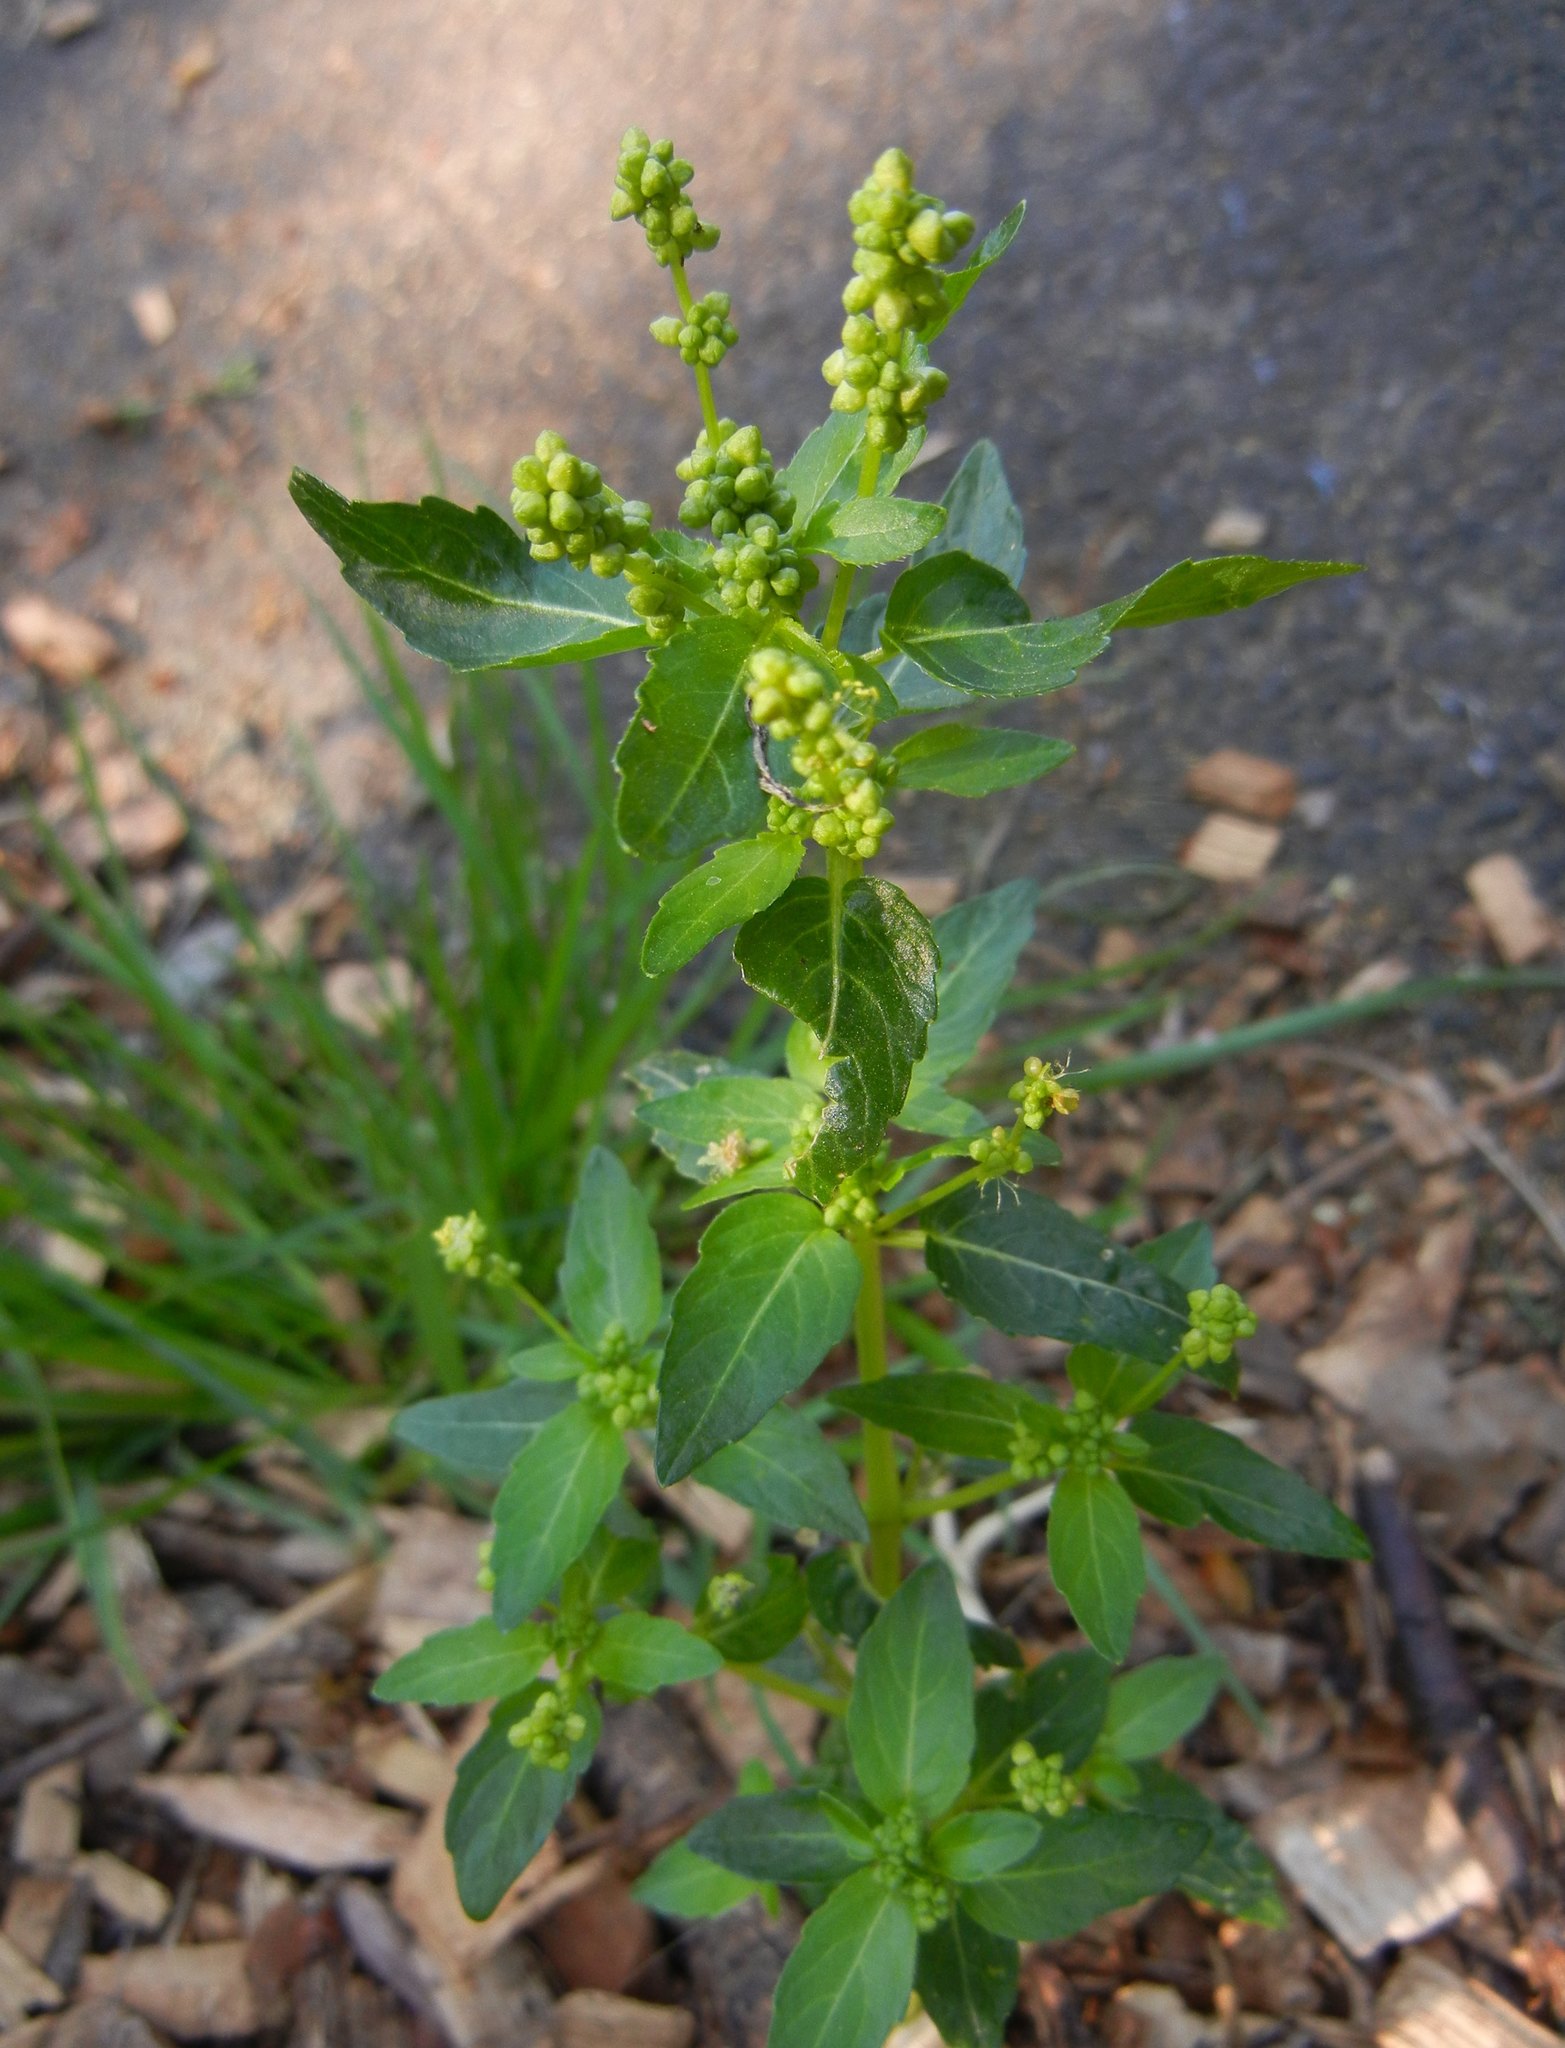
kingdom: Plantae
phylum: Tracheophyta
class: Magnoliopsida
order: Malpighiales
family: Euphorbiaceae
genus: Mercurialis
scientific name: Mercurialis annua
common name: Annual mercury
